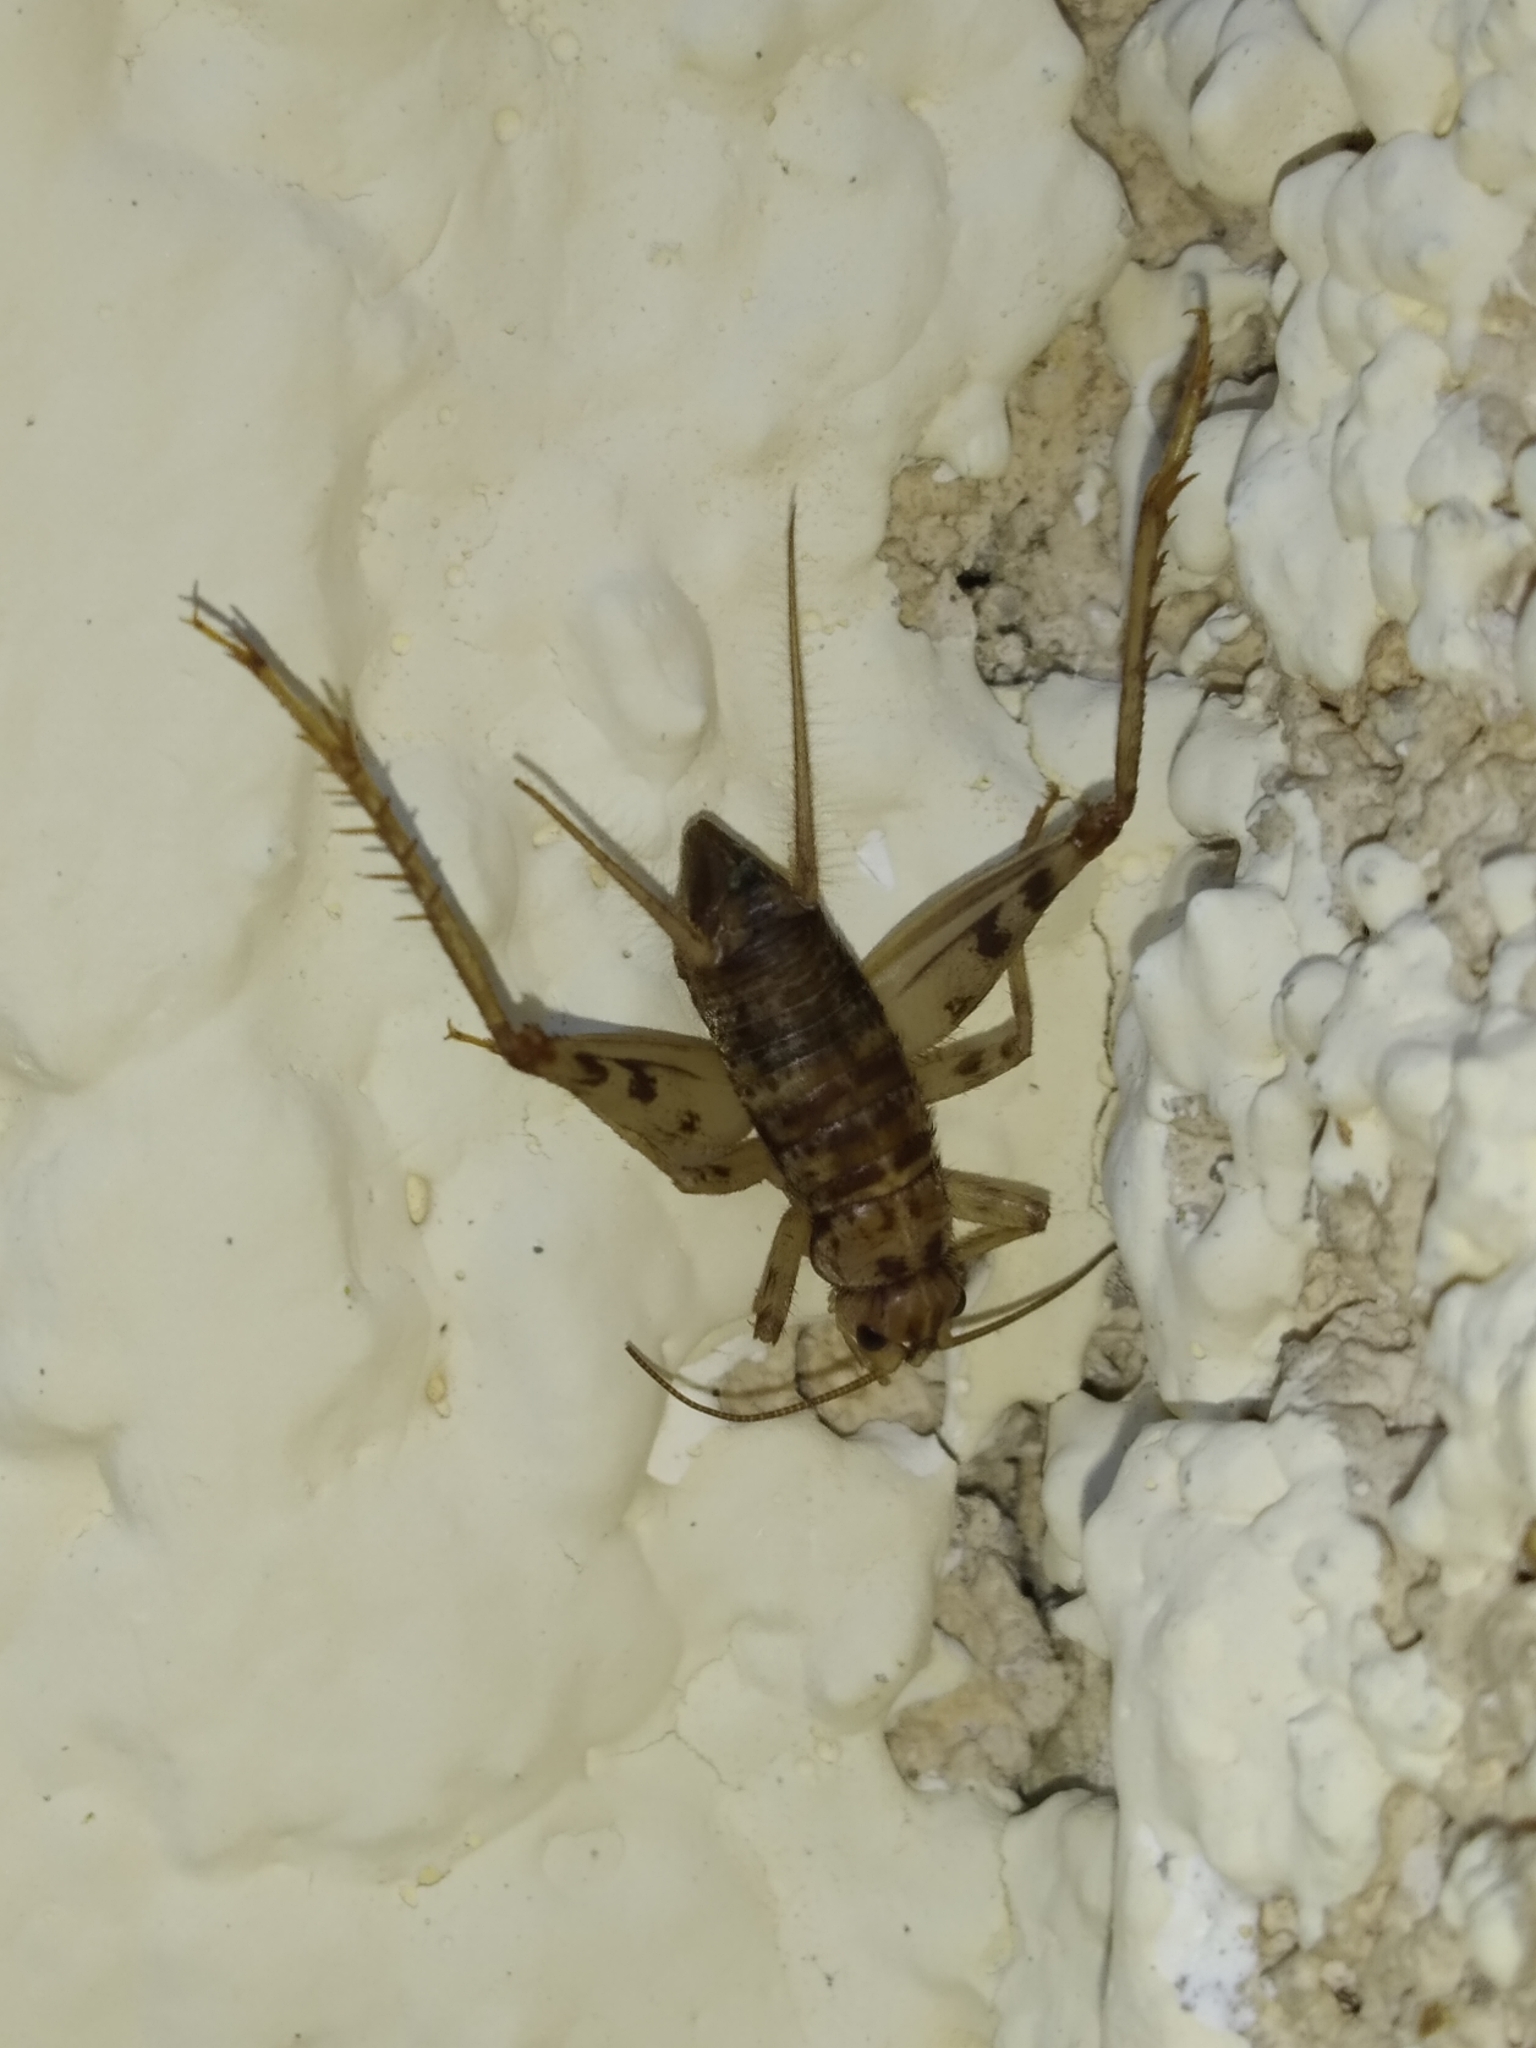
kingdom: Animalia
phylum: Arthropoda
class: Insecta
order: Orthoptera
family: Gryllidae
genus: Gryllomorpha
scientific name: Gryllomorpha dalmatina
